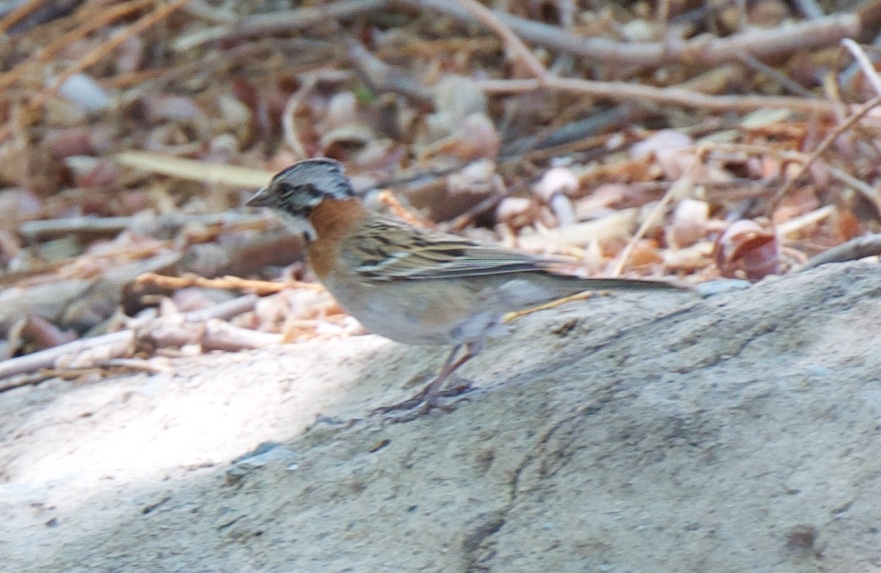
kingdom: Animalia
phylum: Chordata
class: Aves
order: Passeriformes
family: Passerellidae
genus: Zonotrichia
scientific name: Zonotrichia capensis
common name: Rufous-collared sparrow
